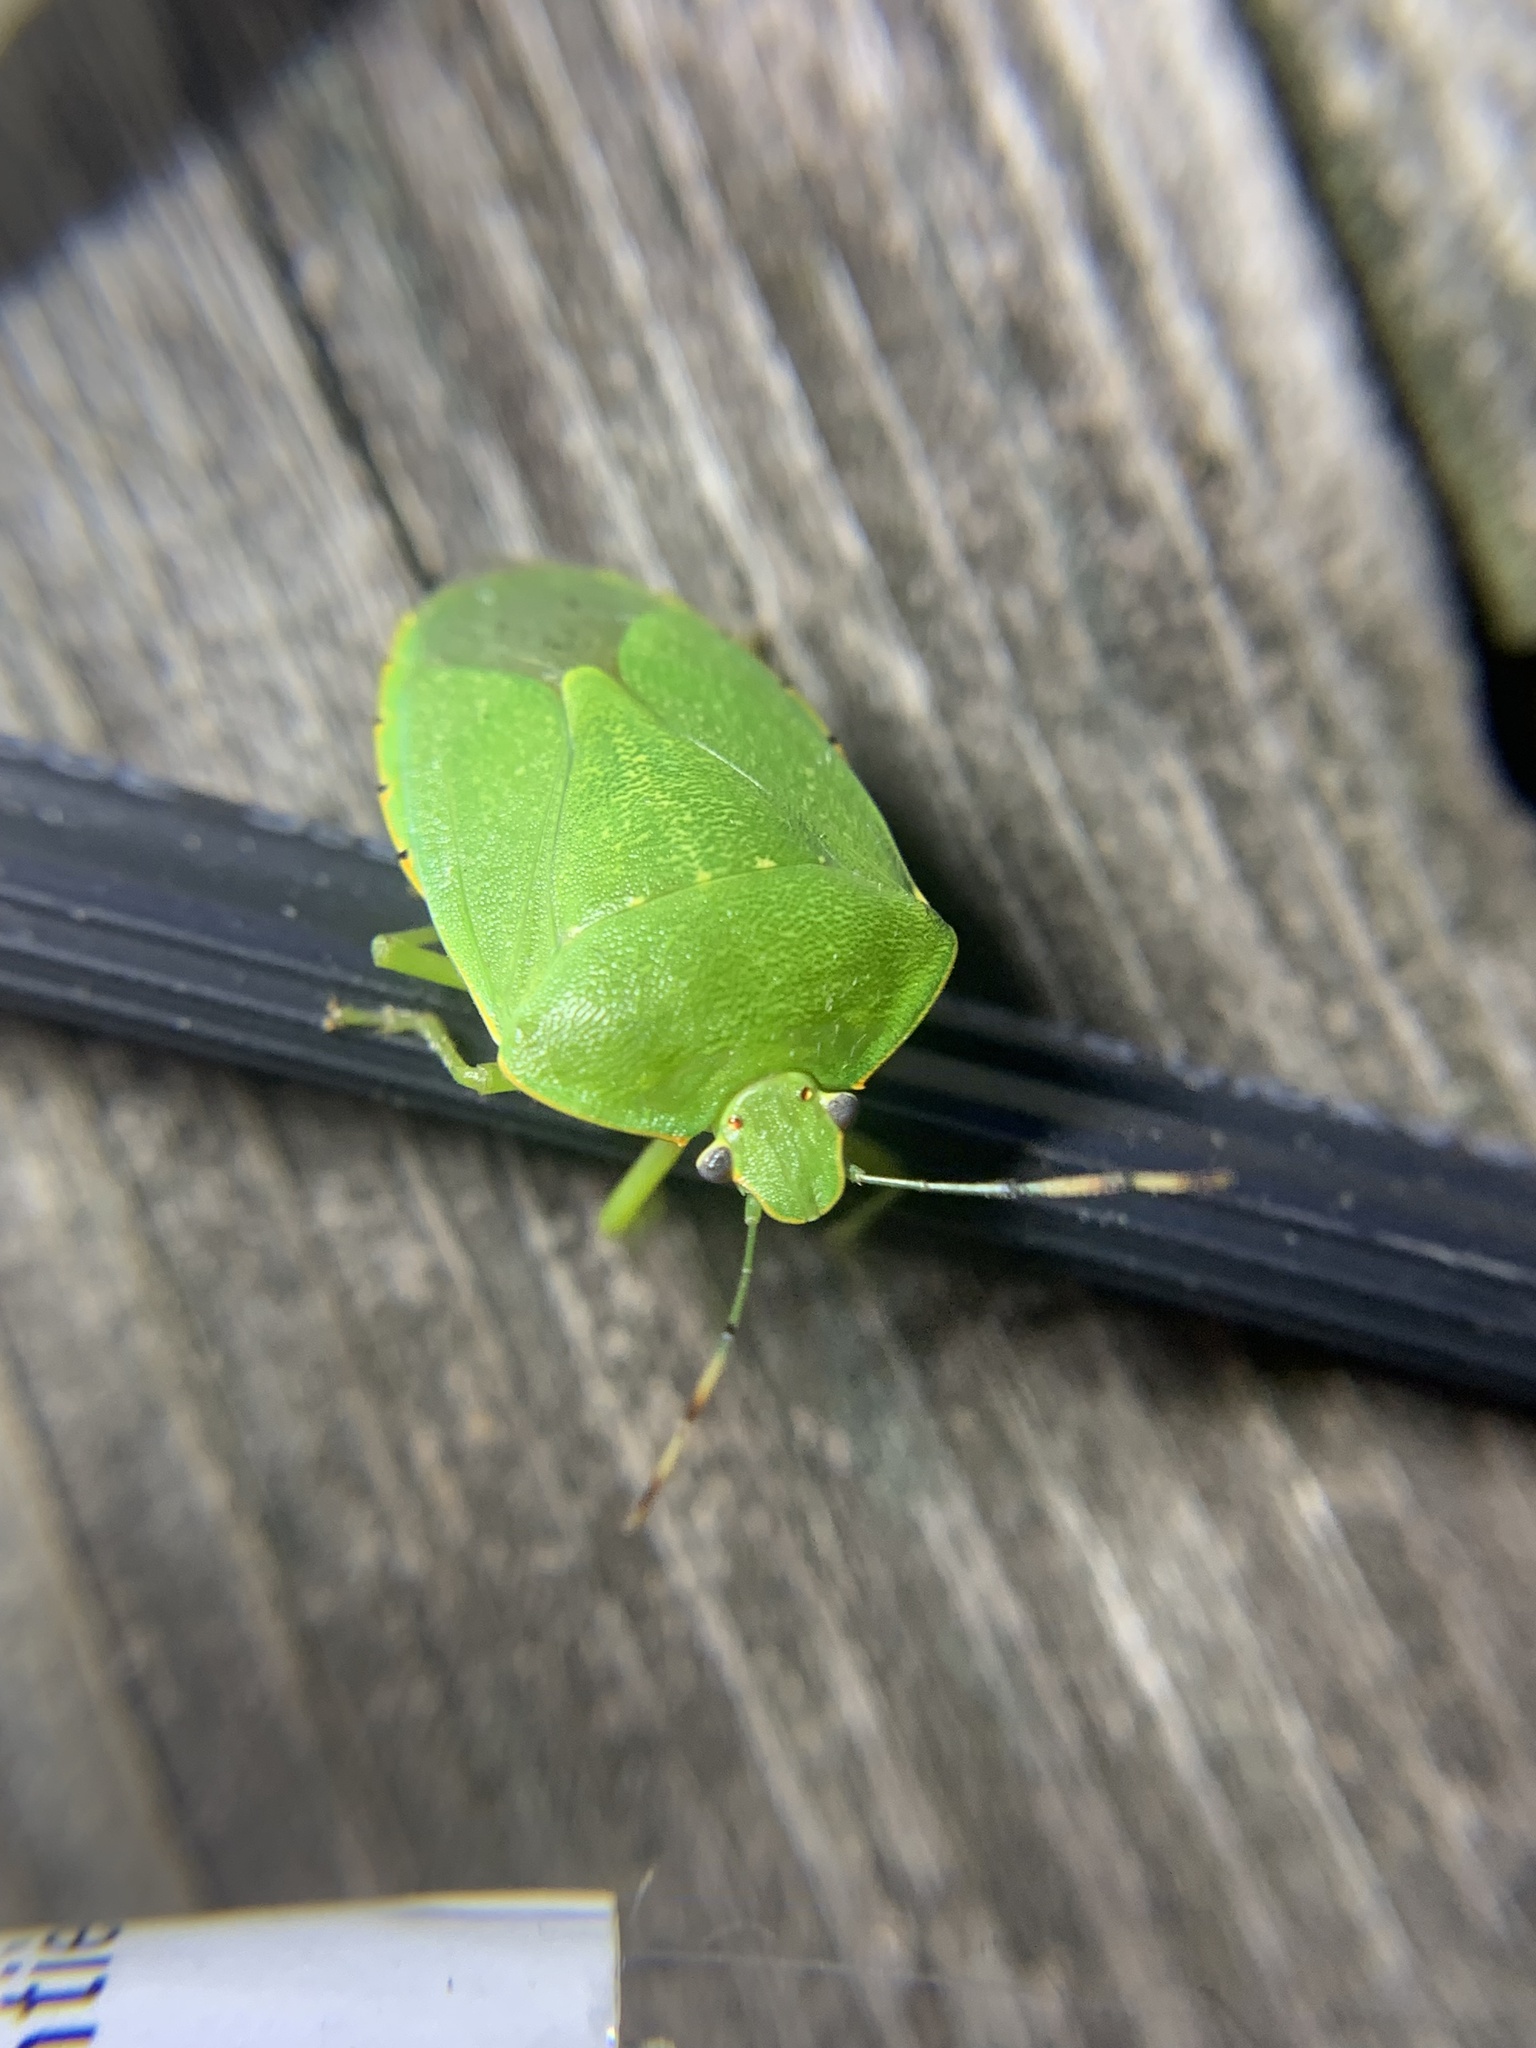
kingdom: Animalia
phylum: Arthropoda
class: Insecta
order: Hemiptera
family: Pentatomidae
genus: Chinavia
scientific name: Chinavia hilaris
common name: Green stink bug
